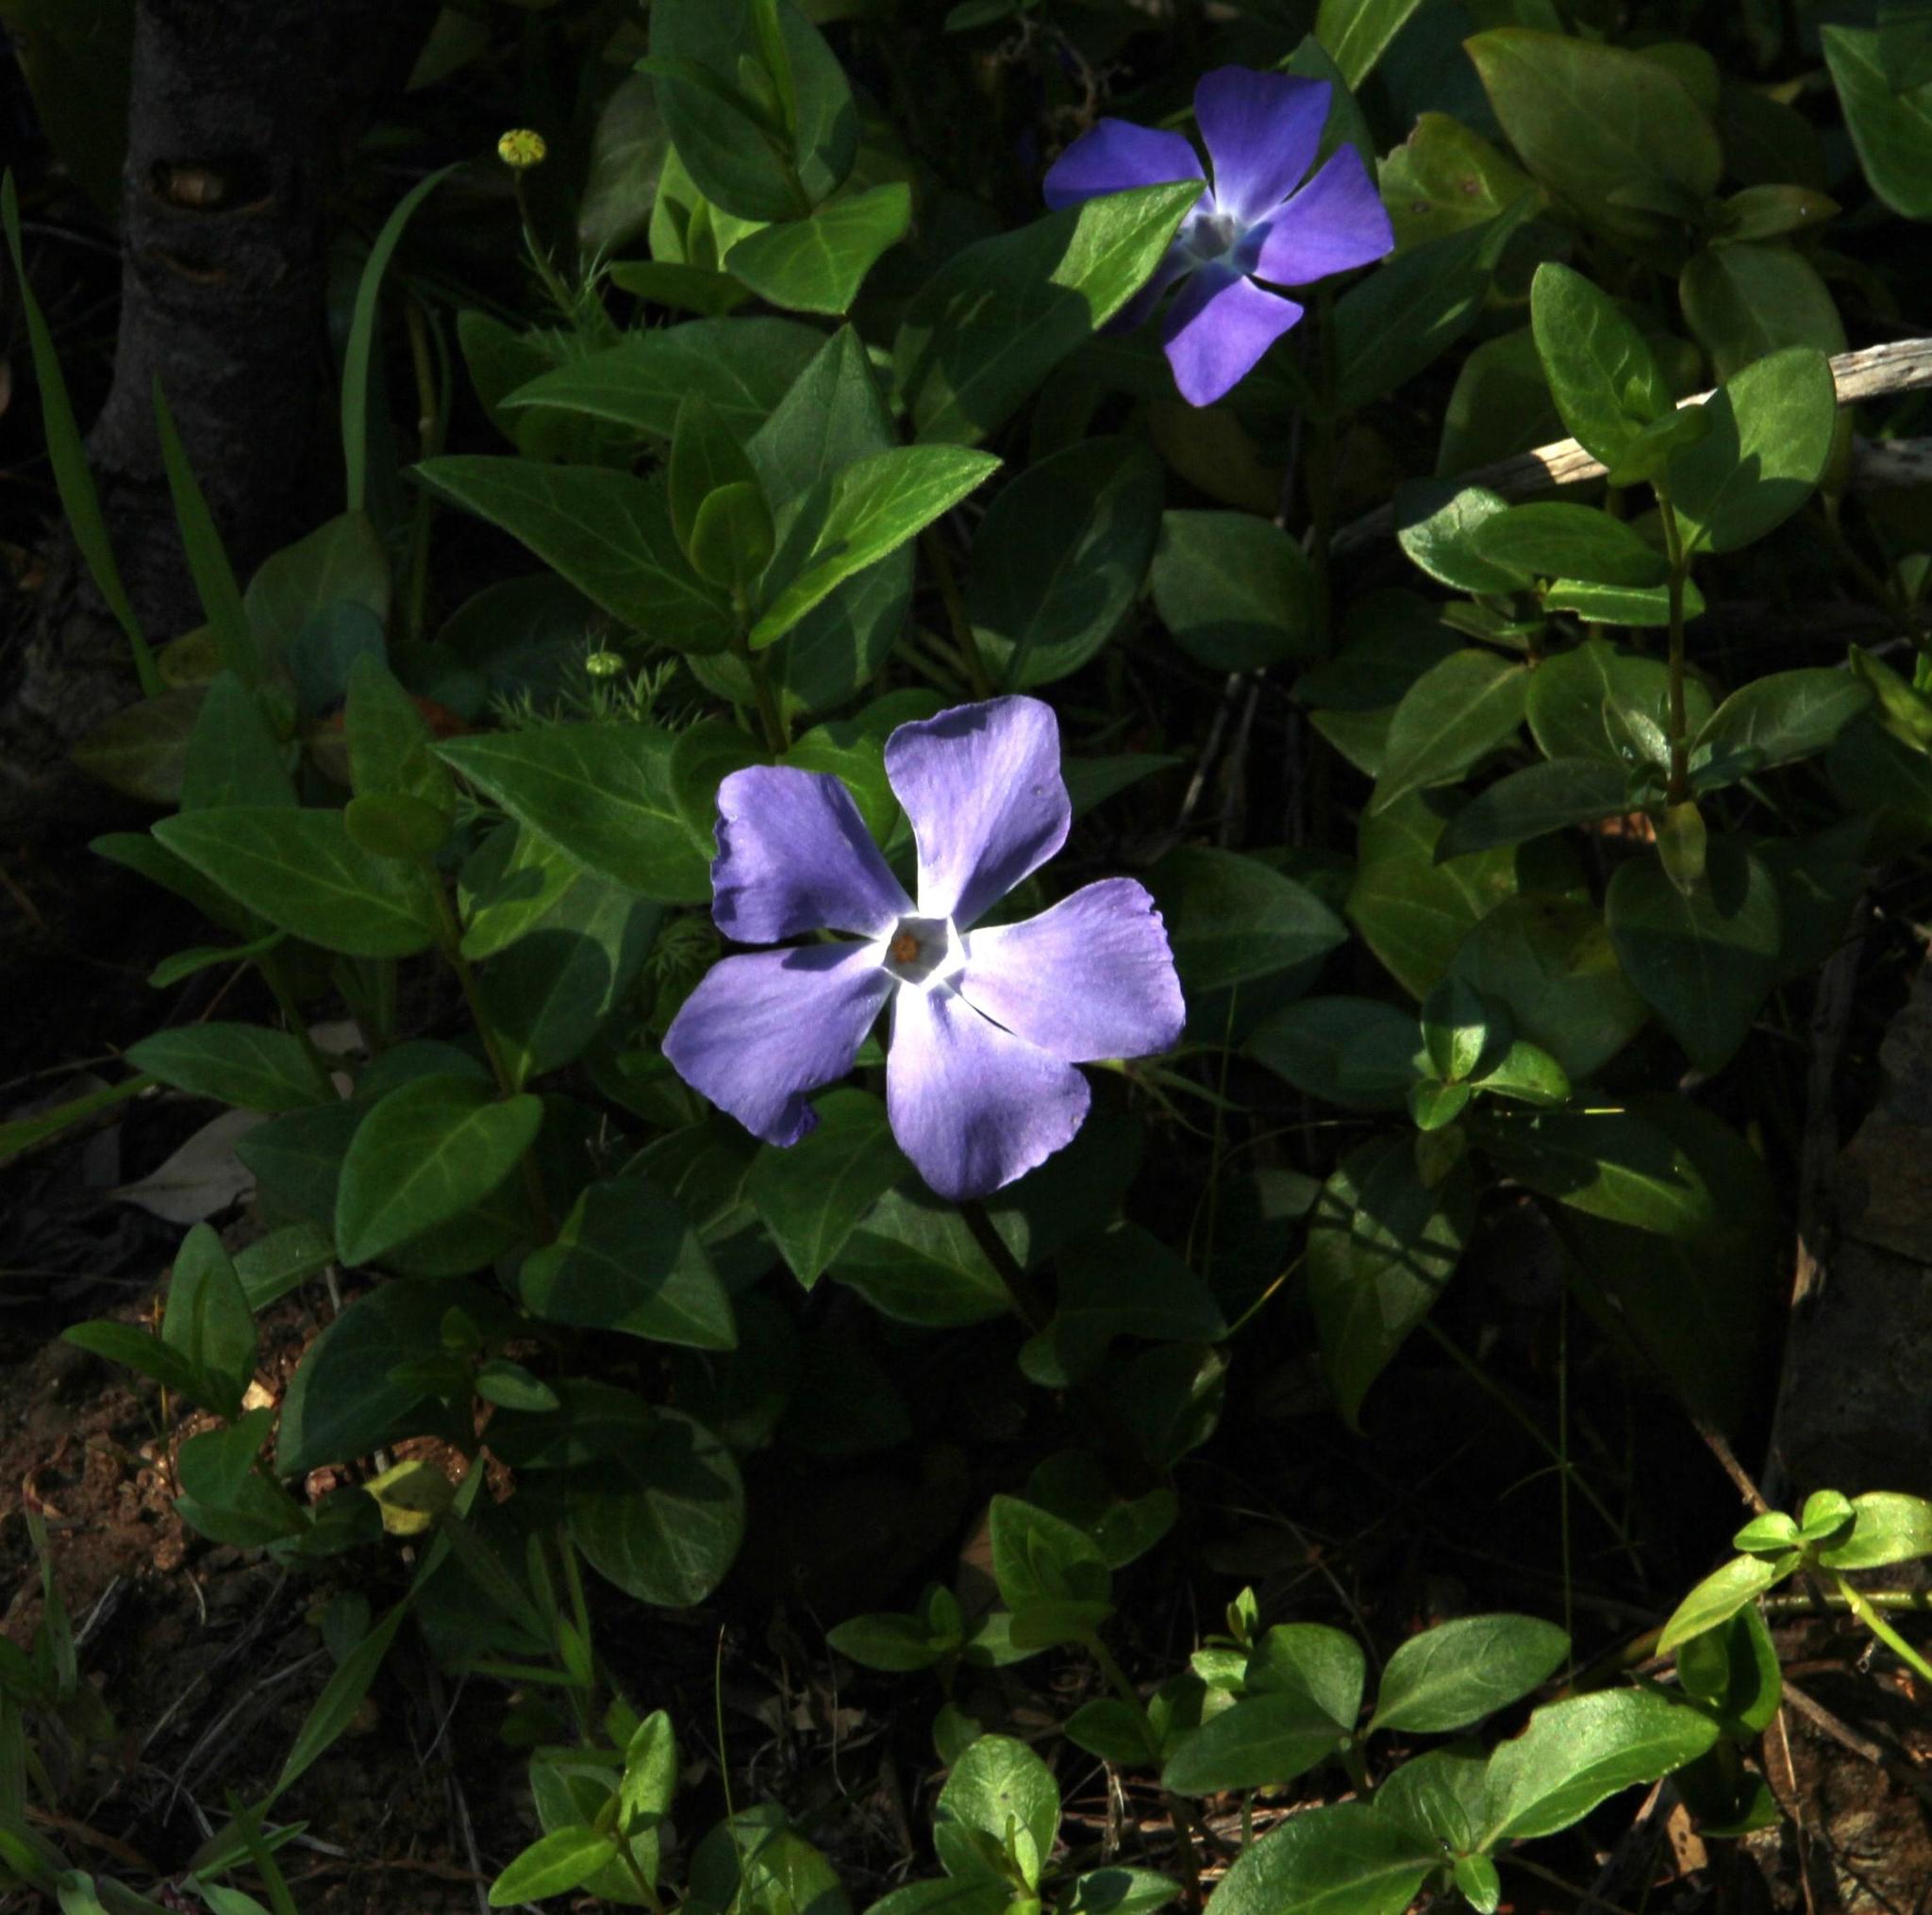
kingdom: Plantae
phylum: Tracheophyta
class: Magnoliopsida
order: Gentianales
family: Apocynaceae
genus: Vinca
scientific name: Vinca major
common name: Greater periwinkle
